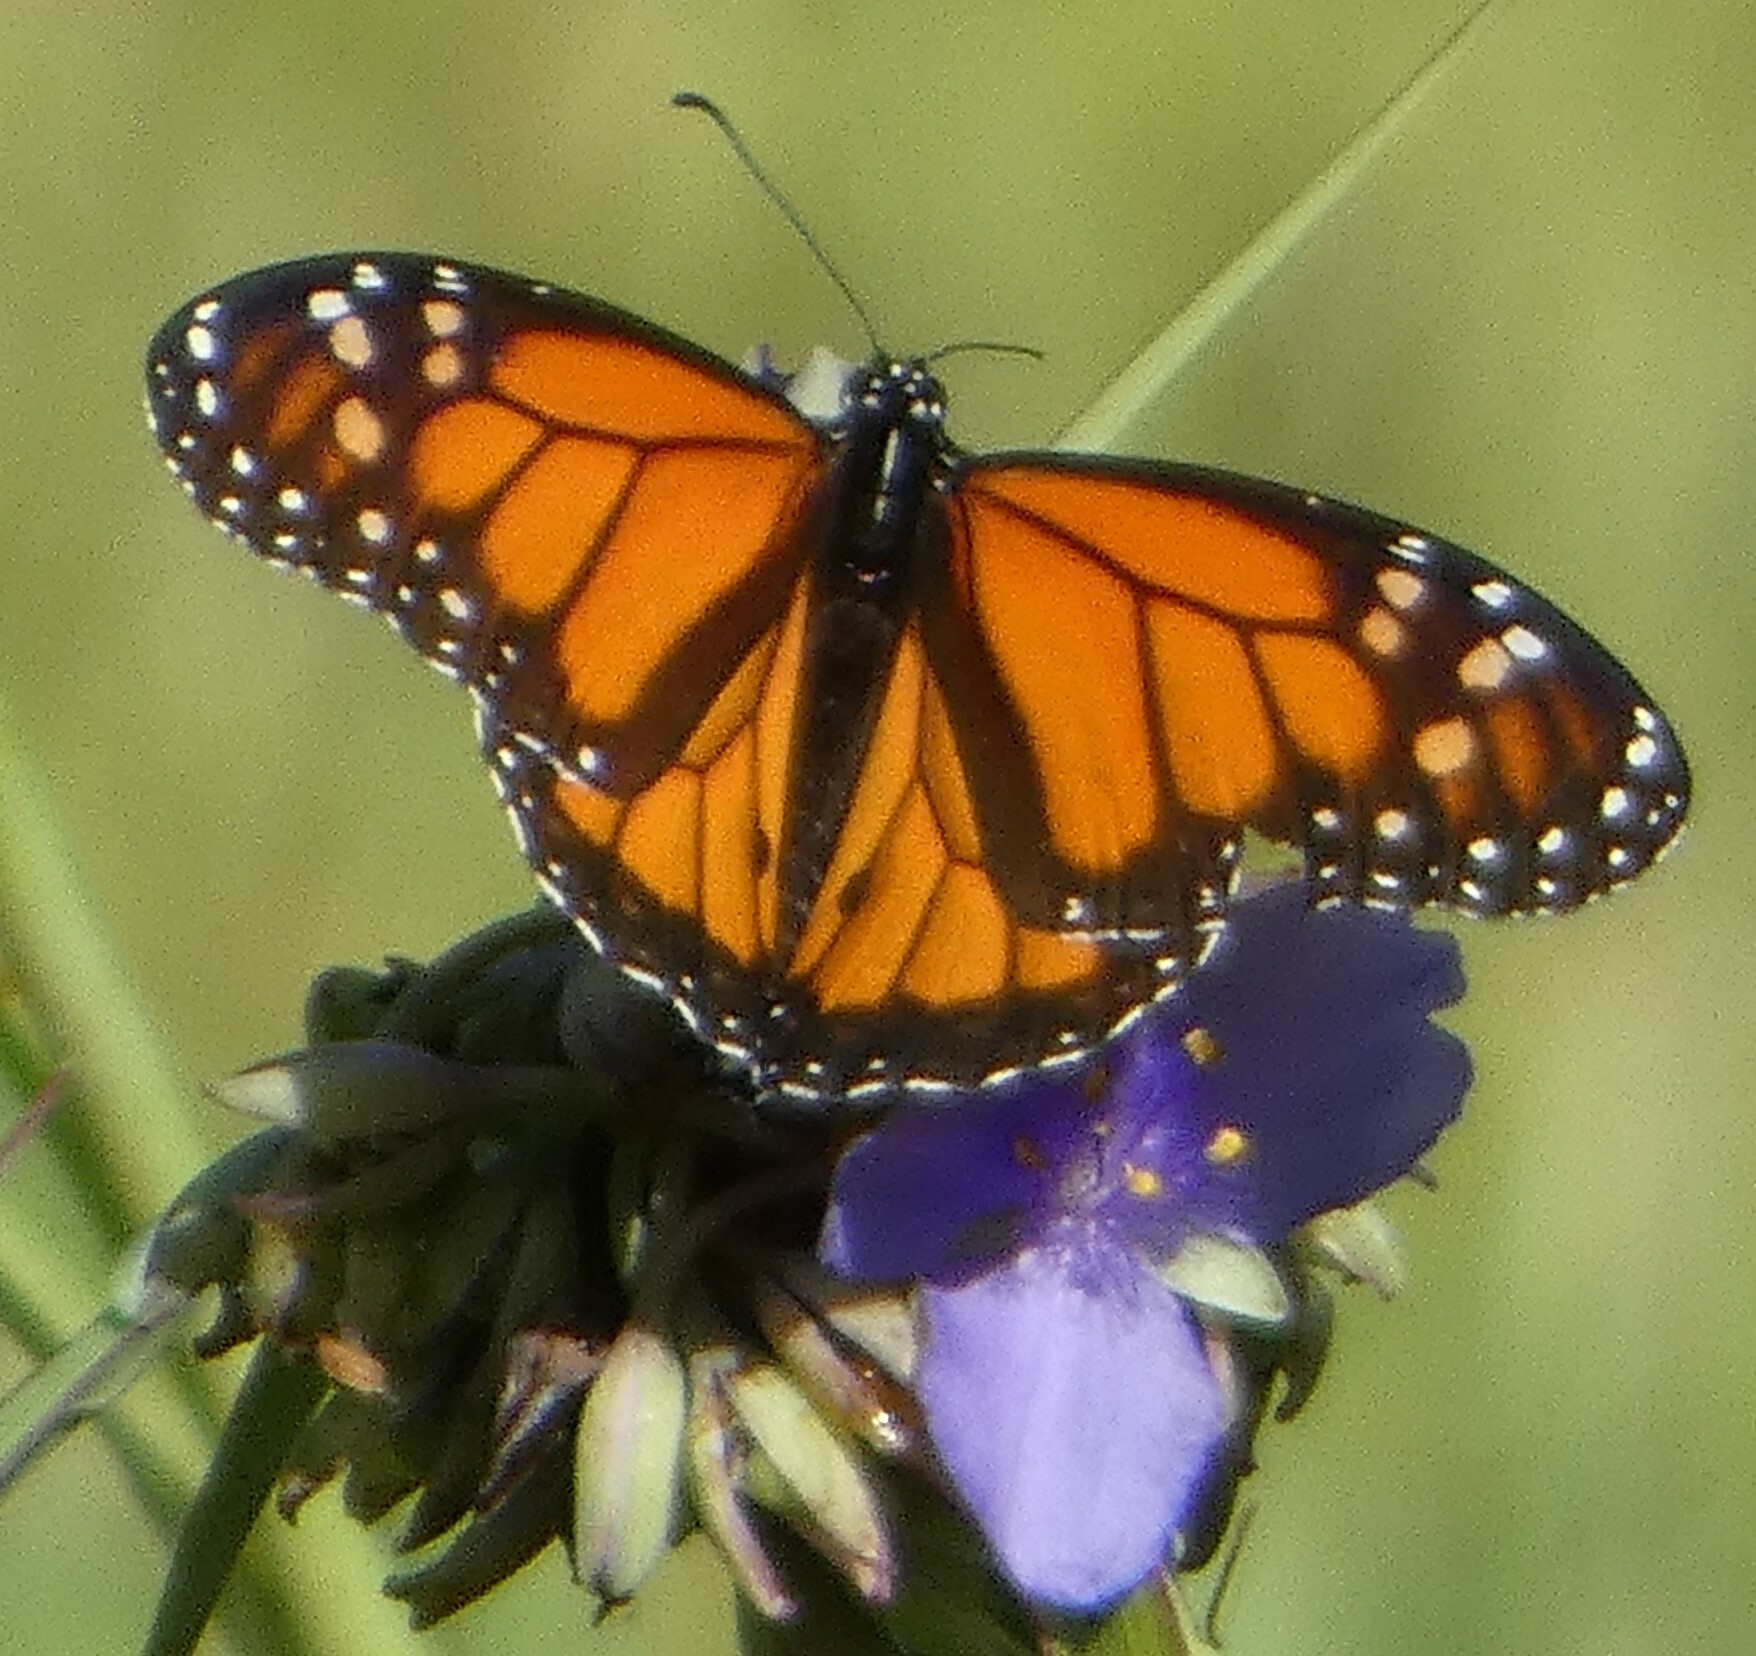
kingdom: Animalia
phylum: Arthropoda
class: Insecta
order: Lepidoptera
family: Nymphalidae
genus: Danaus
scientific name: Danaus plexippus
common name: Monarch
